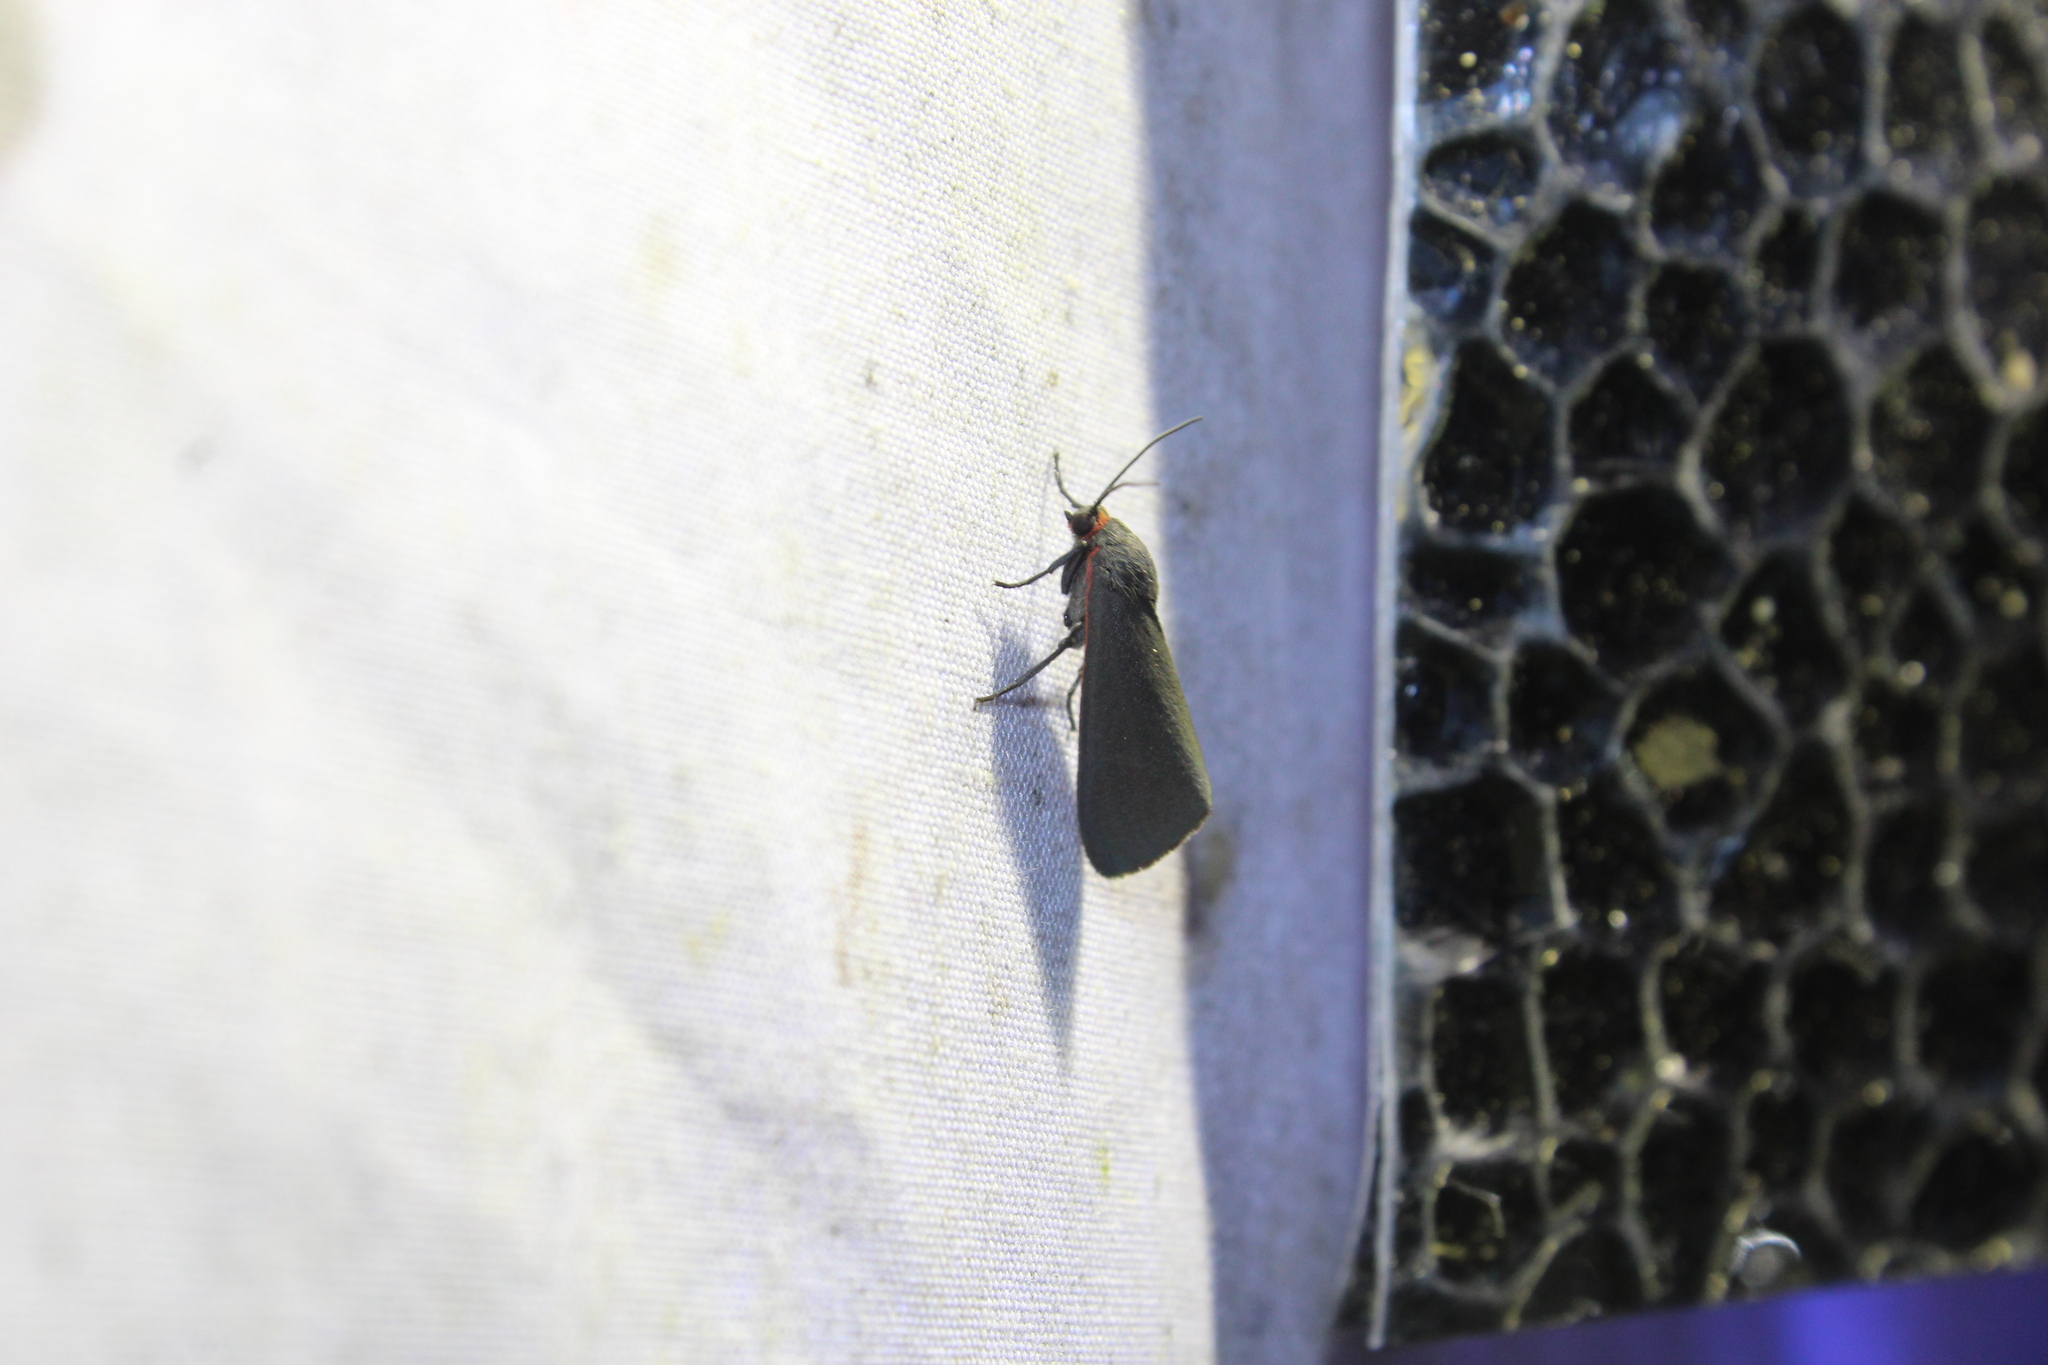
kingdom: Animalia
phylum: Arthropoda
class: Insecta
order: Lepidoptera
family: Erebidae
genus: Virbia
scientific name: Virbia laeta
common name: Joyful holomelina moth
